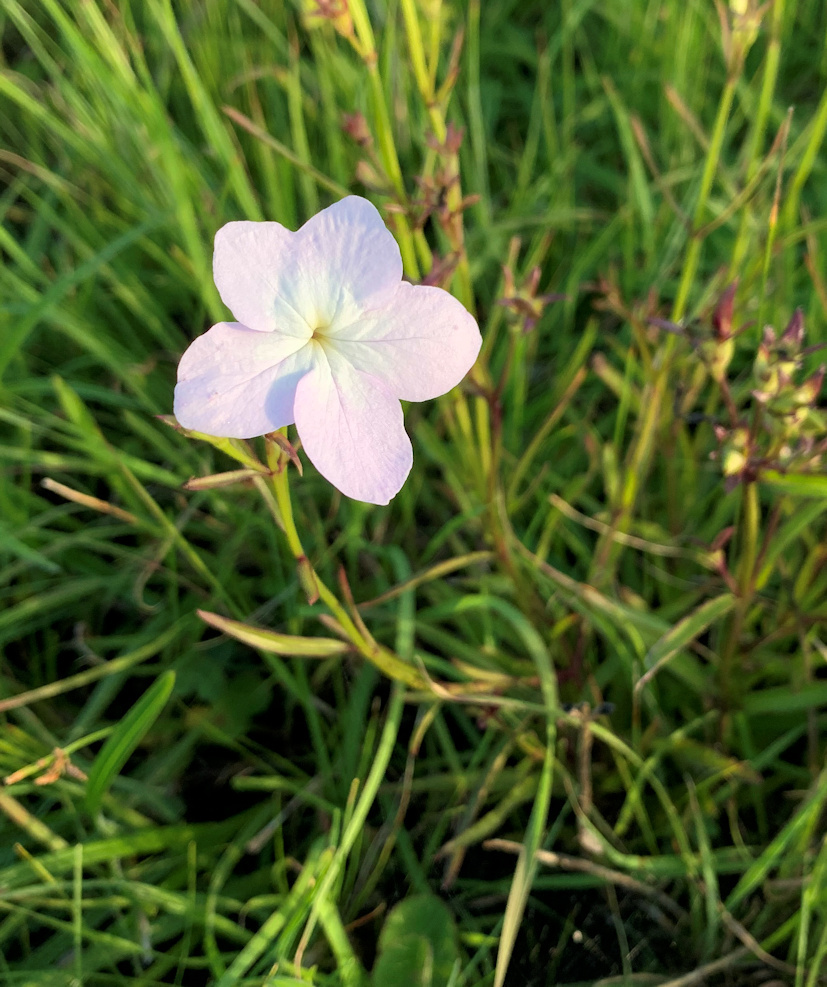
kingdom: Plantae
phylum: Tracheophyta
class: Magnoliopsida
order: Lamiales
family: Orobanchaceae
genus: Cycnium
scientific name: Cycnium tubulosum
